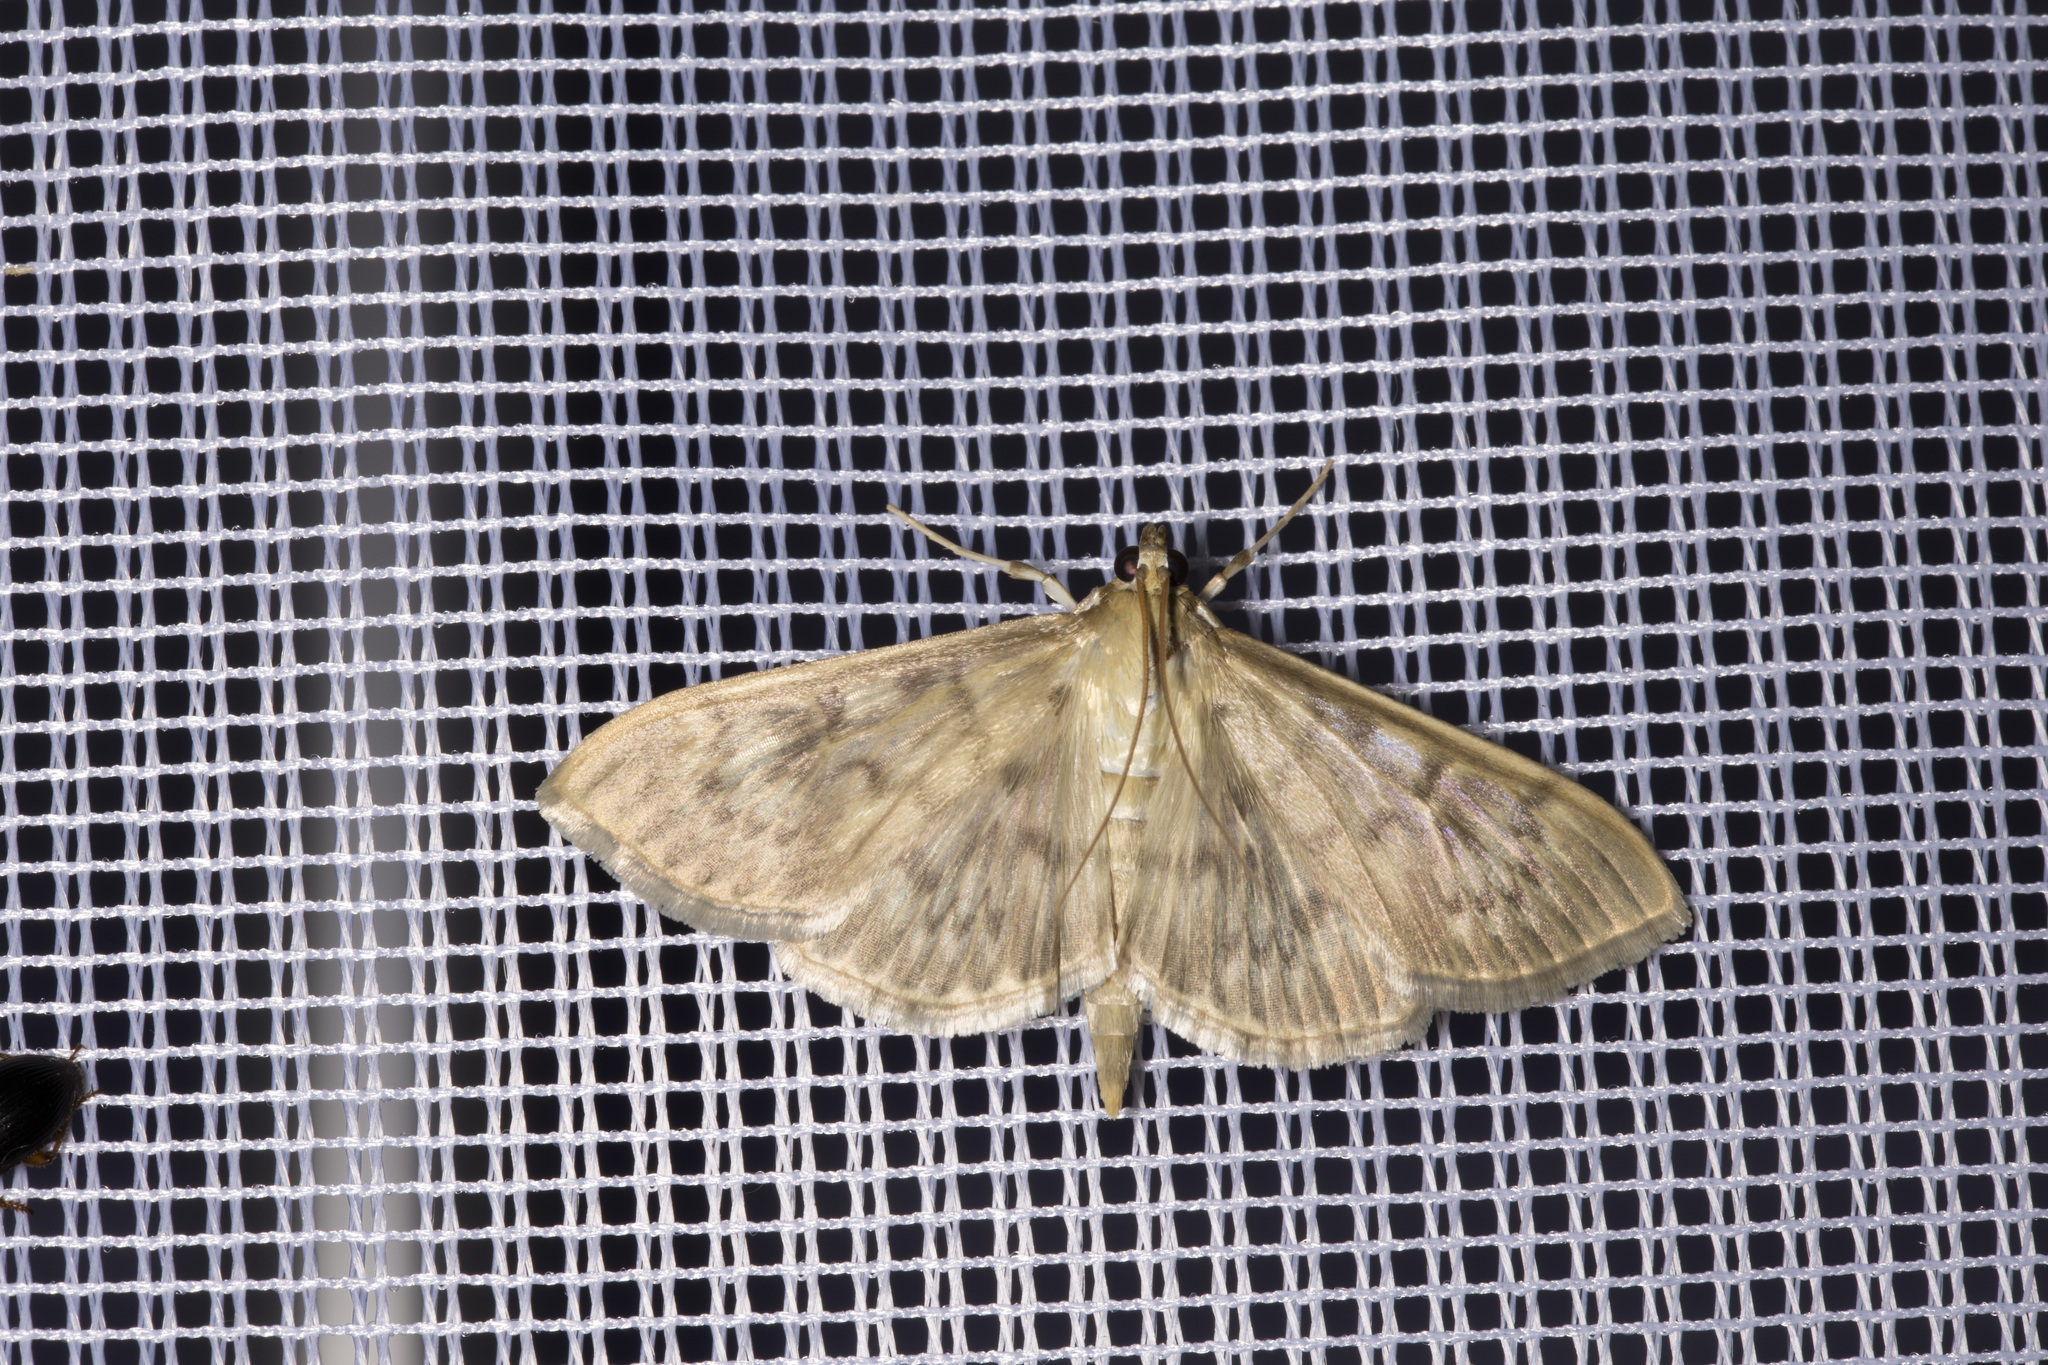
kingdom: Animalia
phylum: Arthropoda
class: Insecta
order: Lepidoptera
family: Crambidae
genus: Patania
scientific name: Patania ruralis
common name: Mother of pearl
